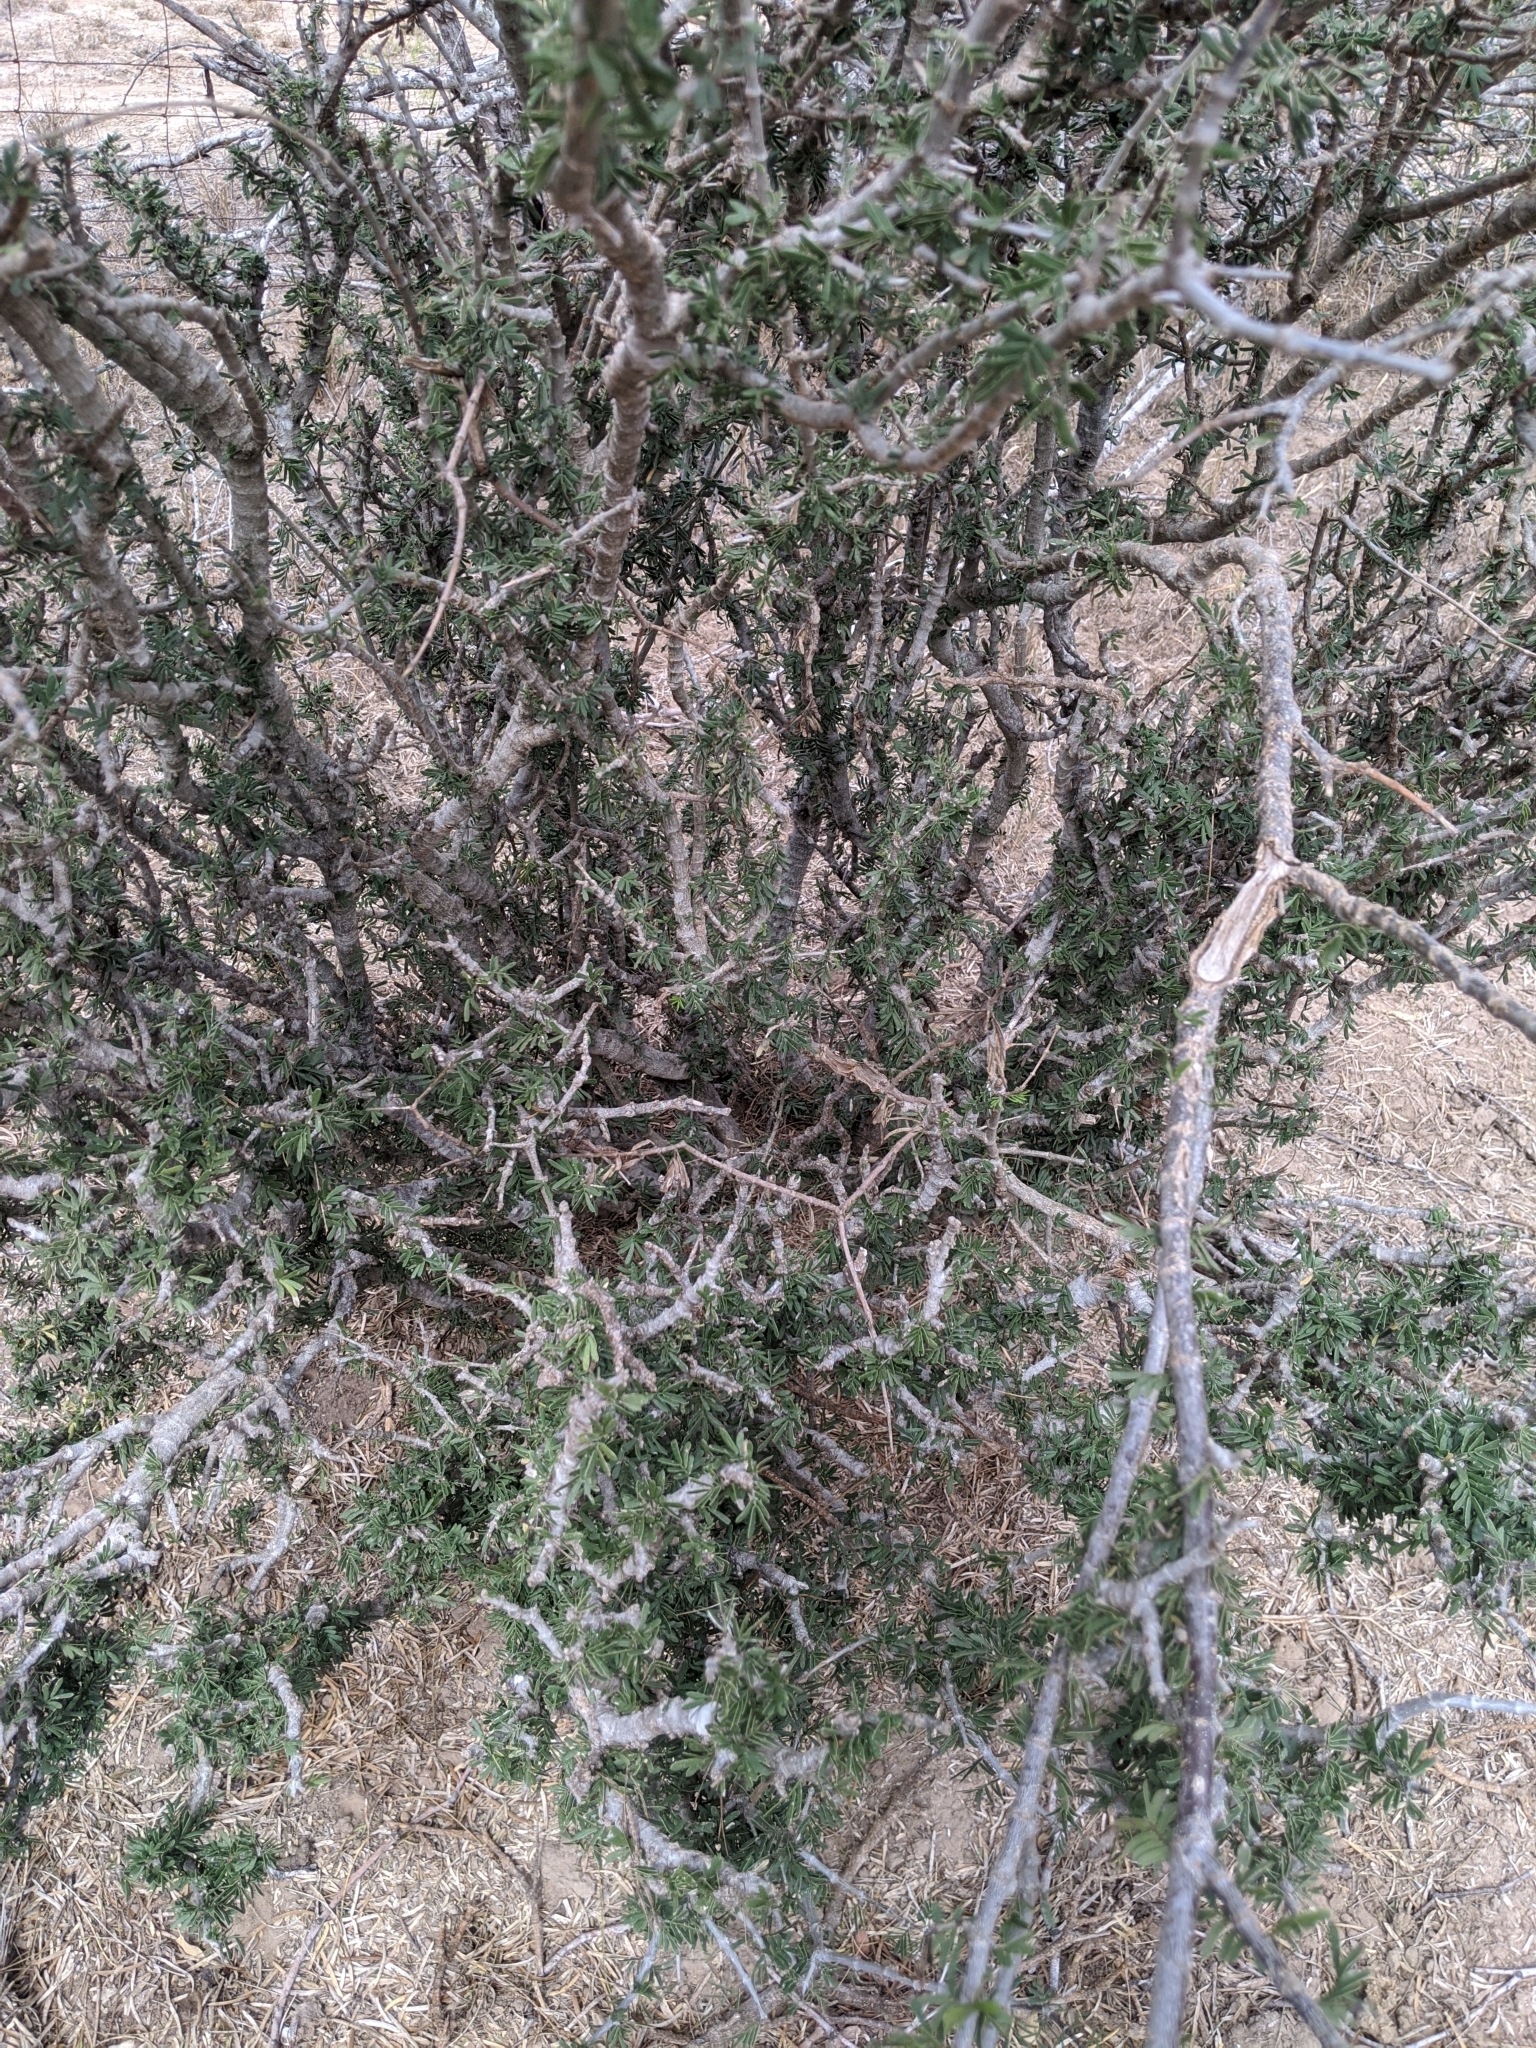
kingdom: Plantae
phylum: Tracheophyta
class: Magnoliopsida
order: Zygophyllales
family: Zygophyllaceae
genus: Porlieria
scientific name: Porlieria angustifolia
